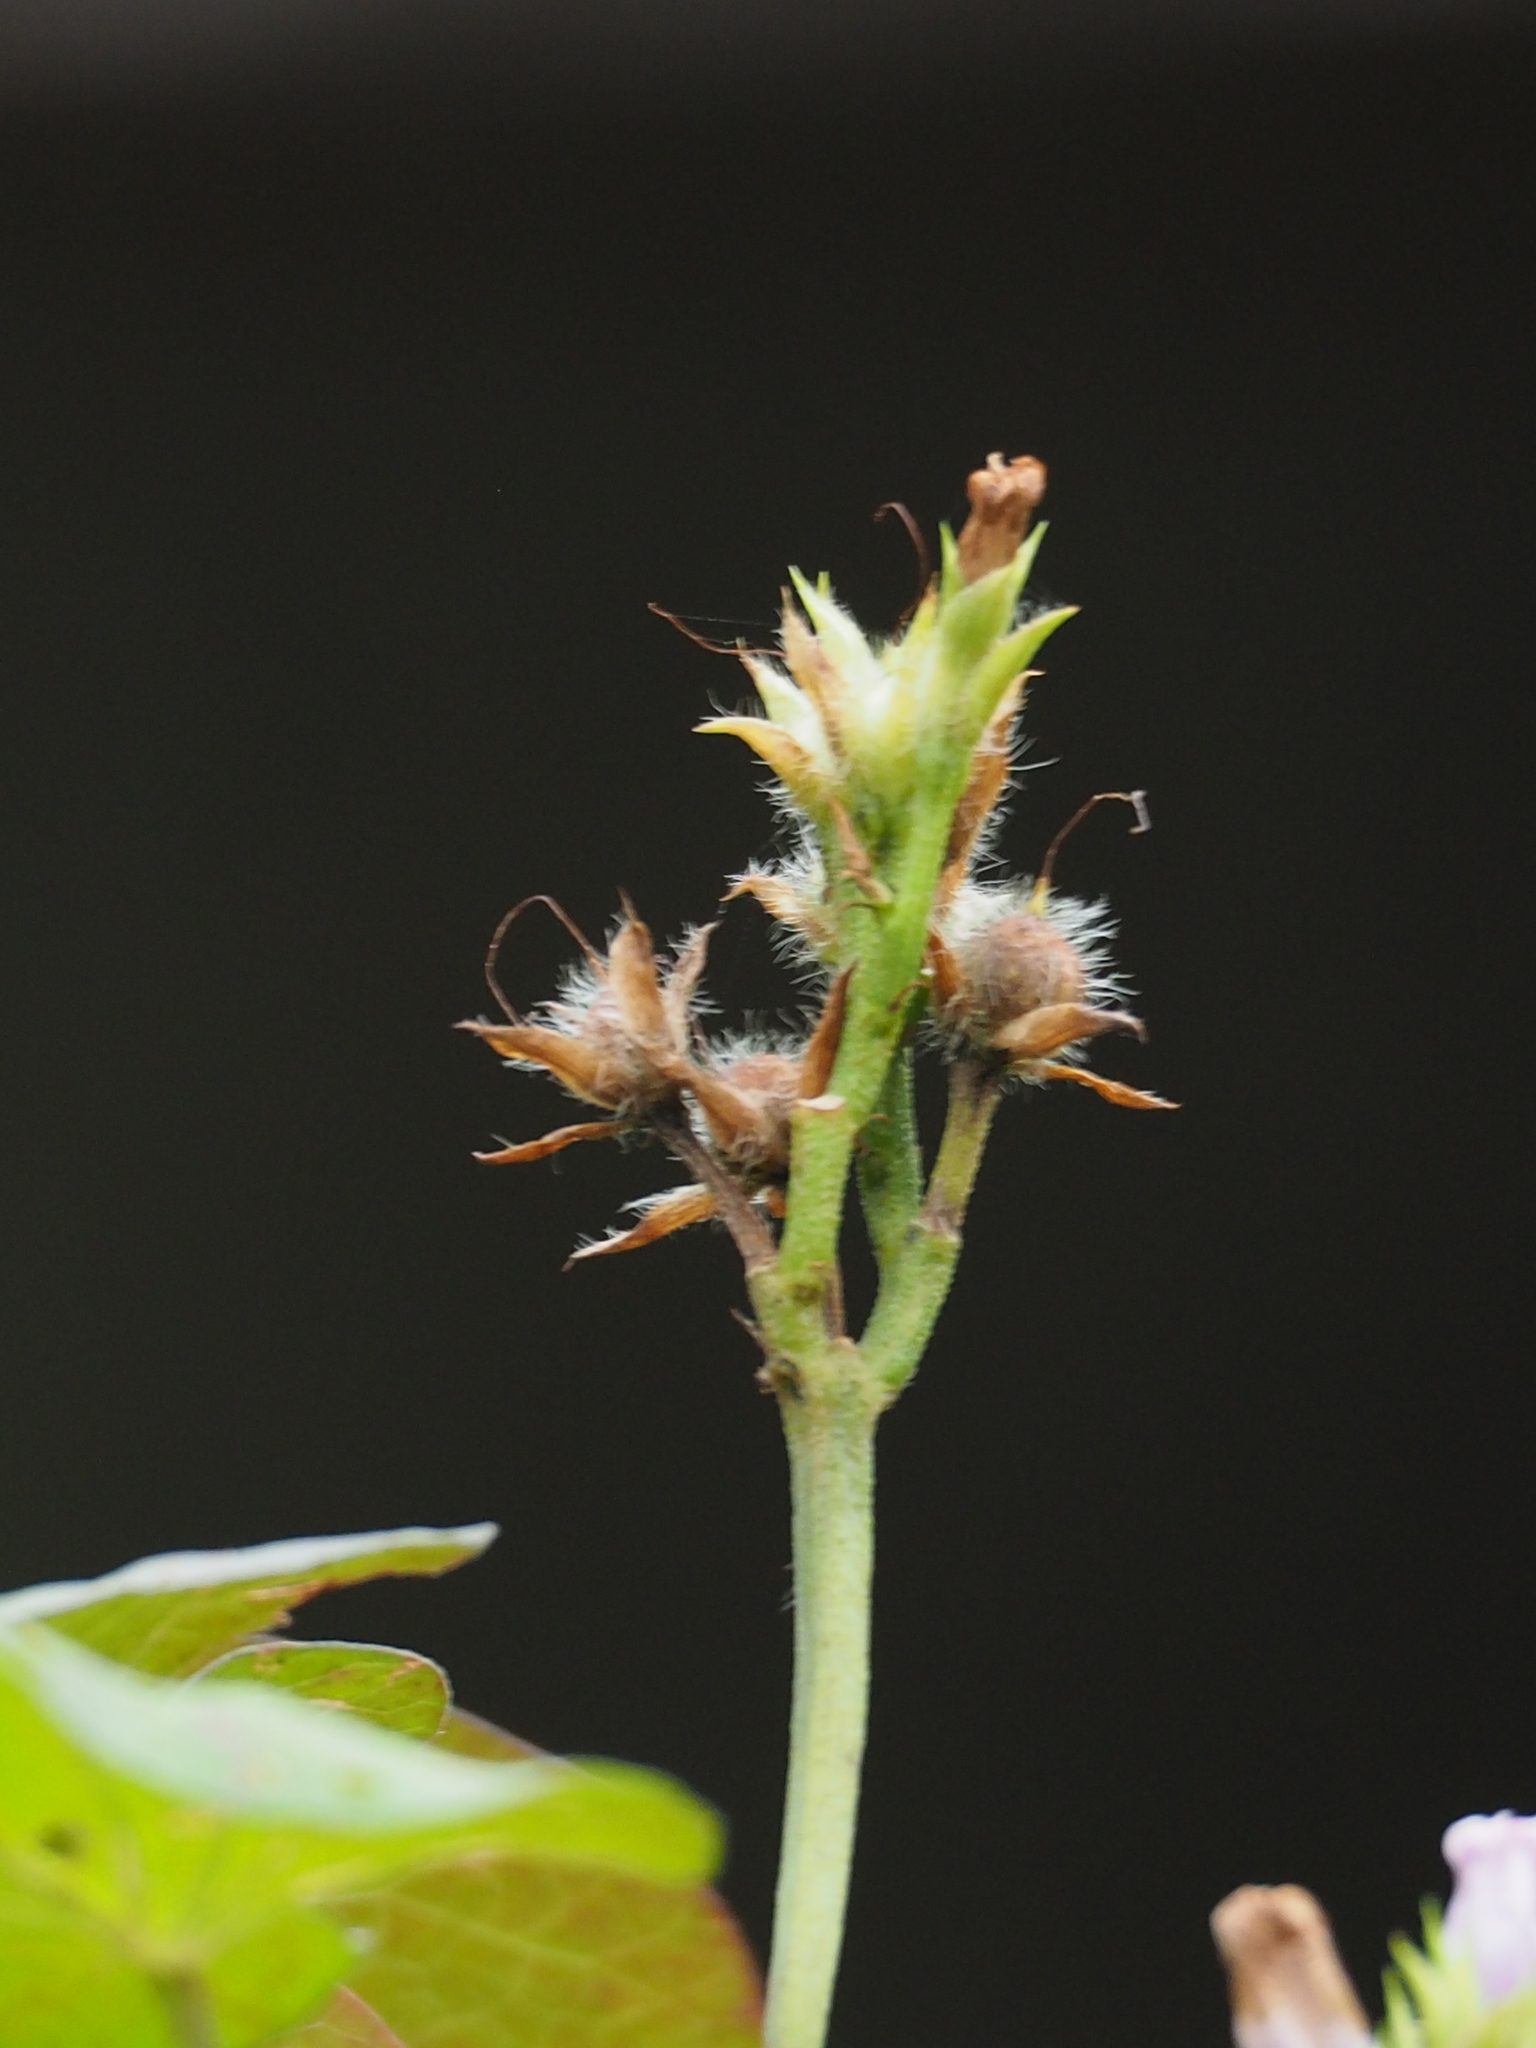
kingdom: Plantae
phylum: Tracheophyta
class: Magnoliopsida
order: Solanales
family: Convolvulaceae
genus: Ipomoea
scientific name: Ipomoea triloba
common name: Little-bell
